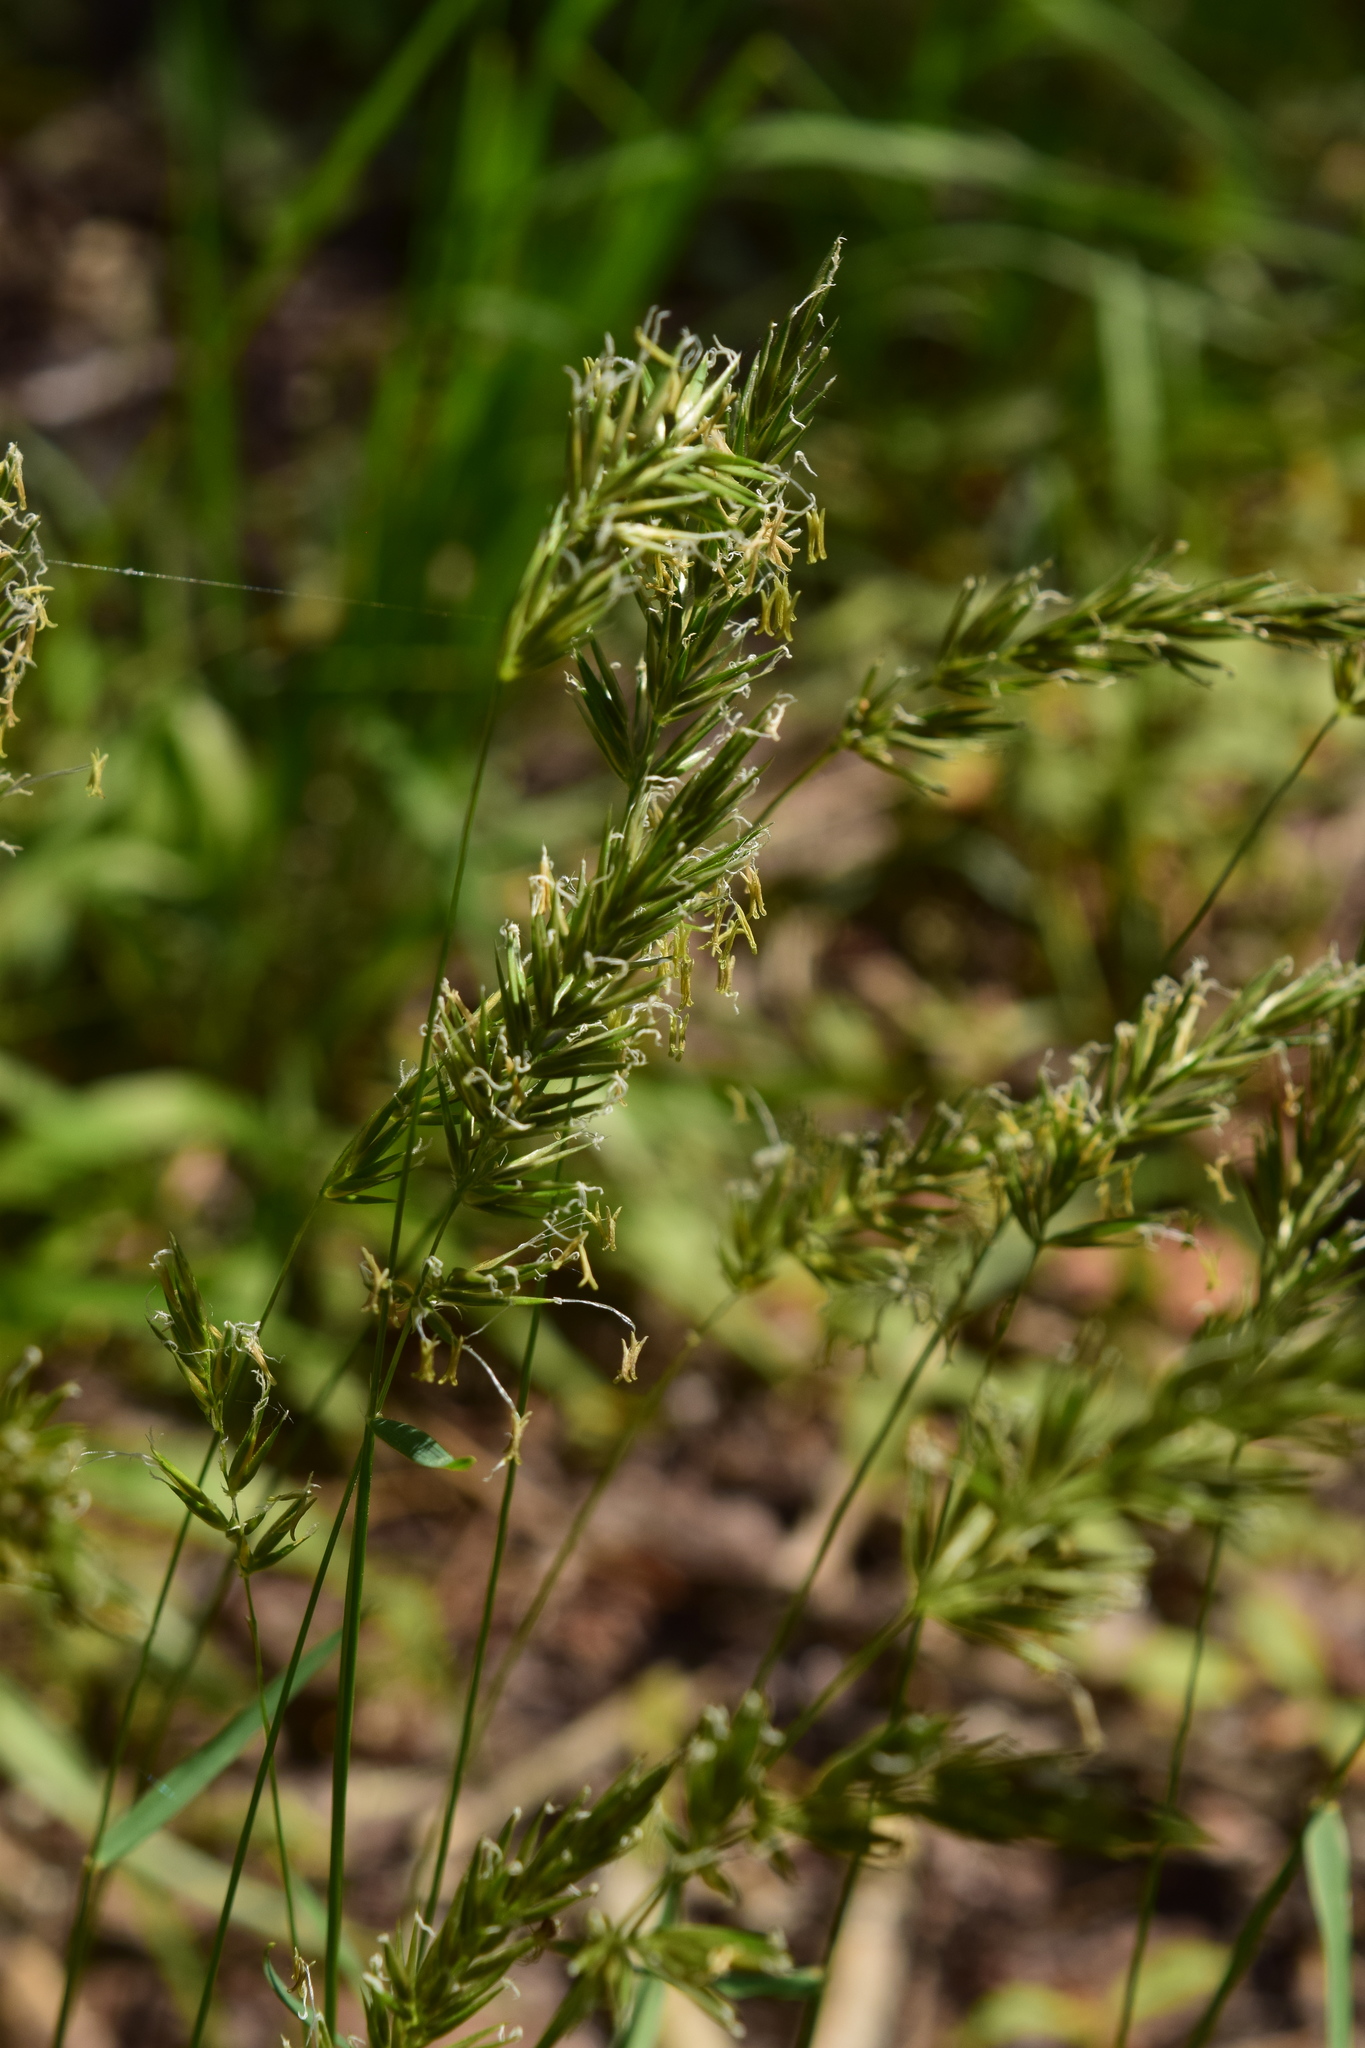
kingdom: Plantae
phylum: Tracheophyta
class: Liliopsida
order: Poales
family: Poaceae
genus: Anthoxanthum
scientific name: Anthoxanthum odoratum
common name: Sweet vernalgrass
